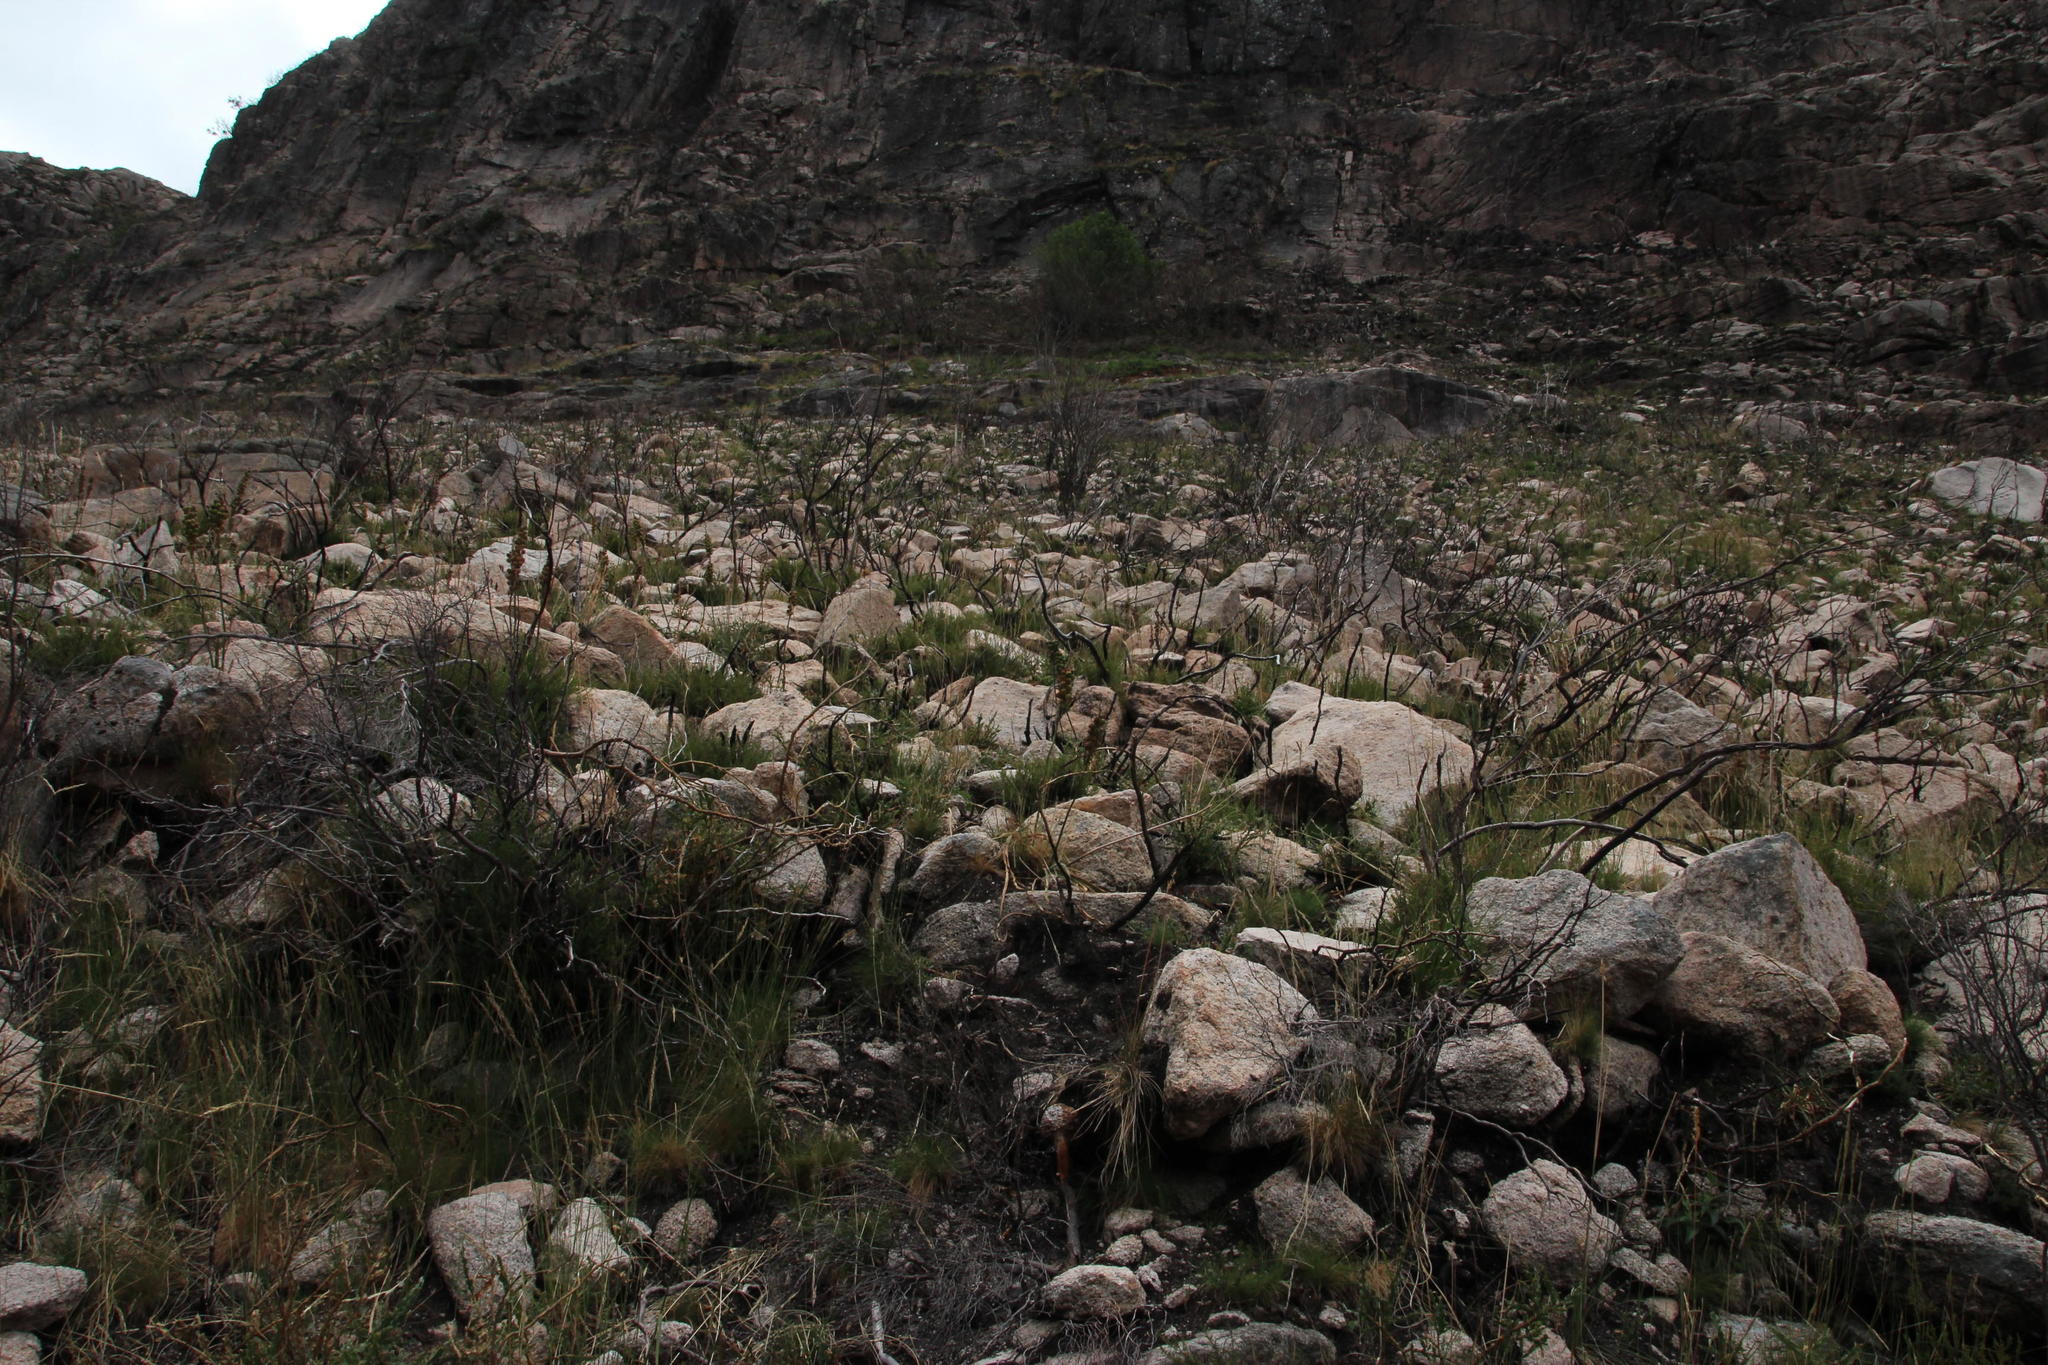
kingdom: Plantae
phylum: Tracheophyta
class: Liliopsida
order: Asparagales
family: Asphodelaceae
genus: Asphodelus
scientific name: Asphodelus albus
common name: White asphodel
